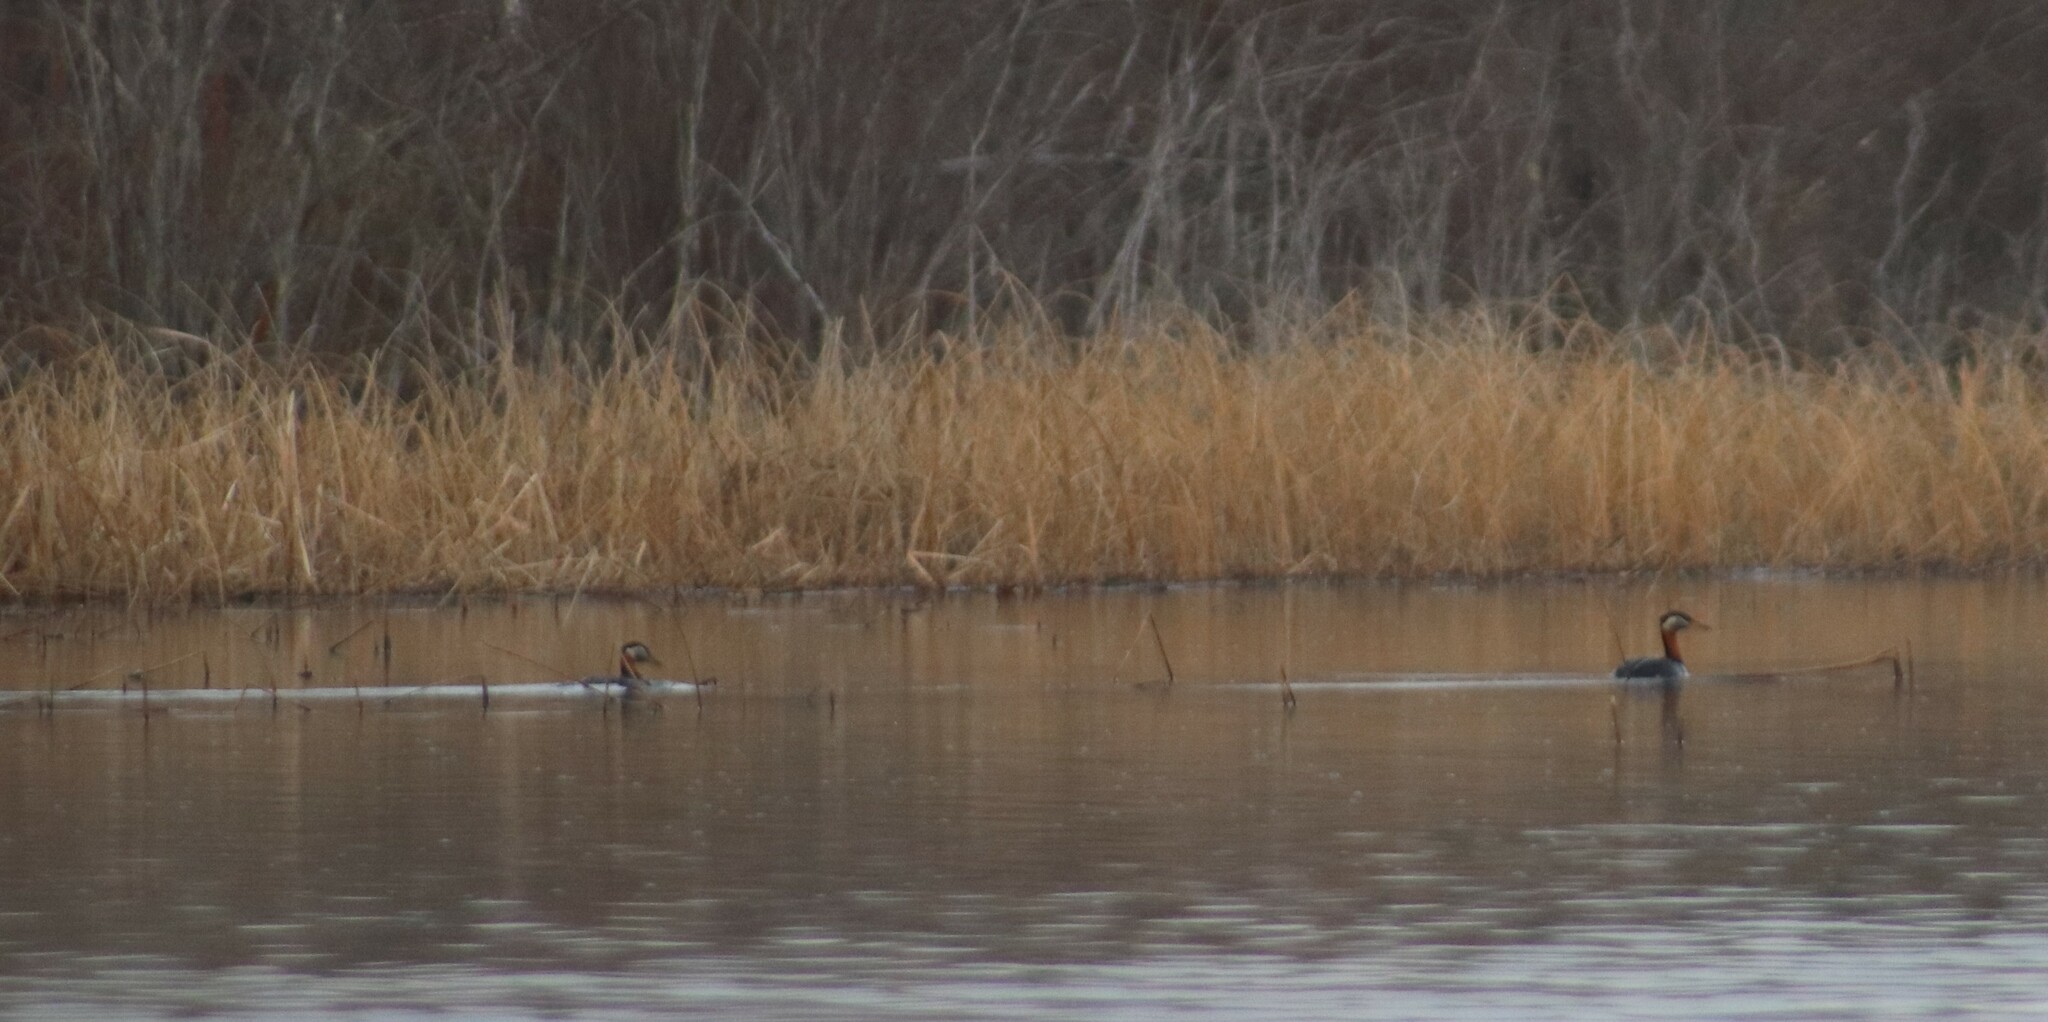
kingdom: Animalia
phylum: Chordata
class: Aves
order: Podicipediformes
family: Podicipedidae
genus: Podiceps
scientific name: Podiceps grisegena
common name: Red-necked grebe
